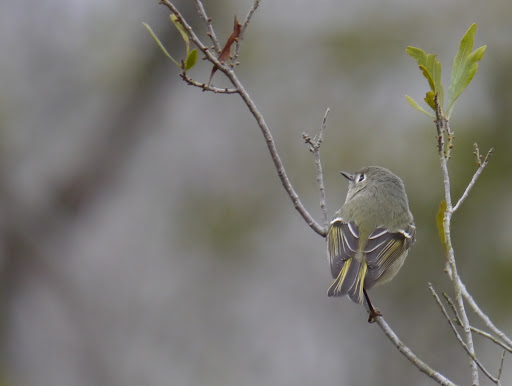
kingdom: Animalia
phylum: Chordata
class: Aves
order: Passeriformes
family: Regulidae
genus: Regulus
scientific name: Regulus calendula
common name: Ruby-crowned kinglet
